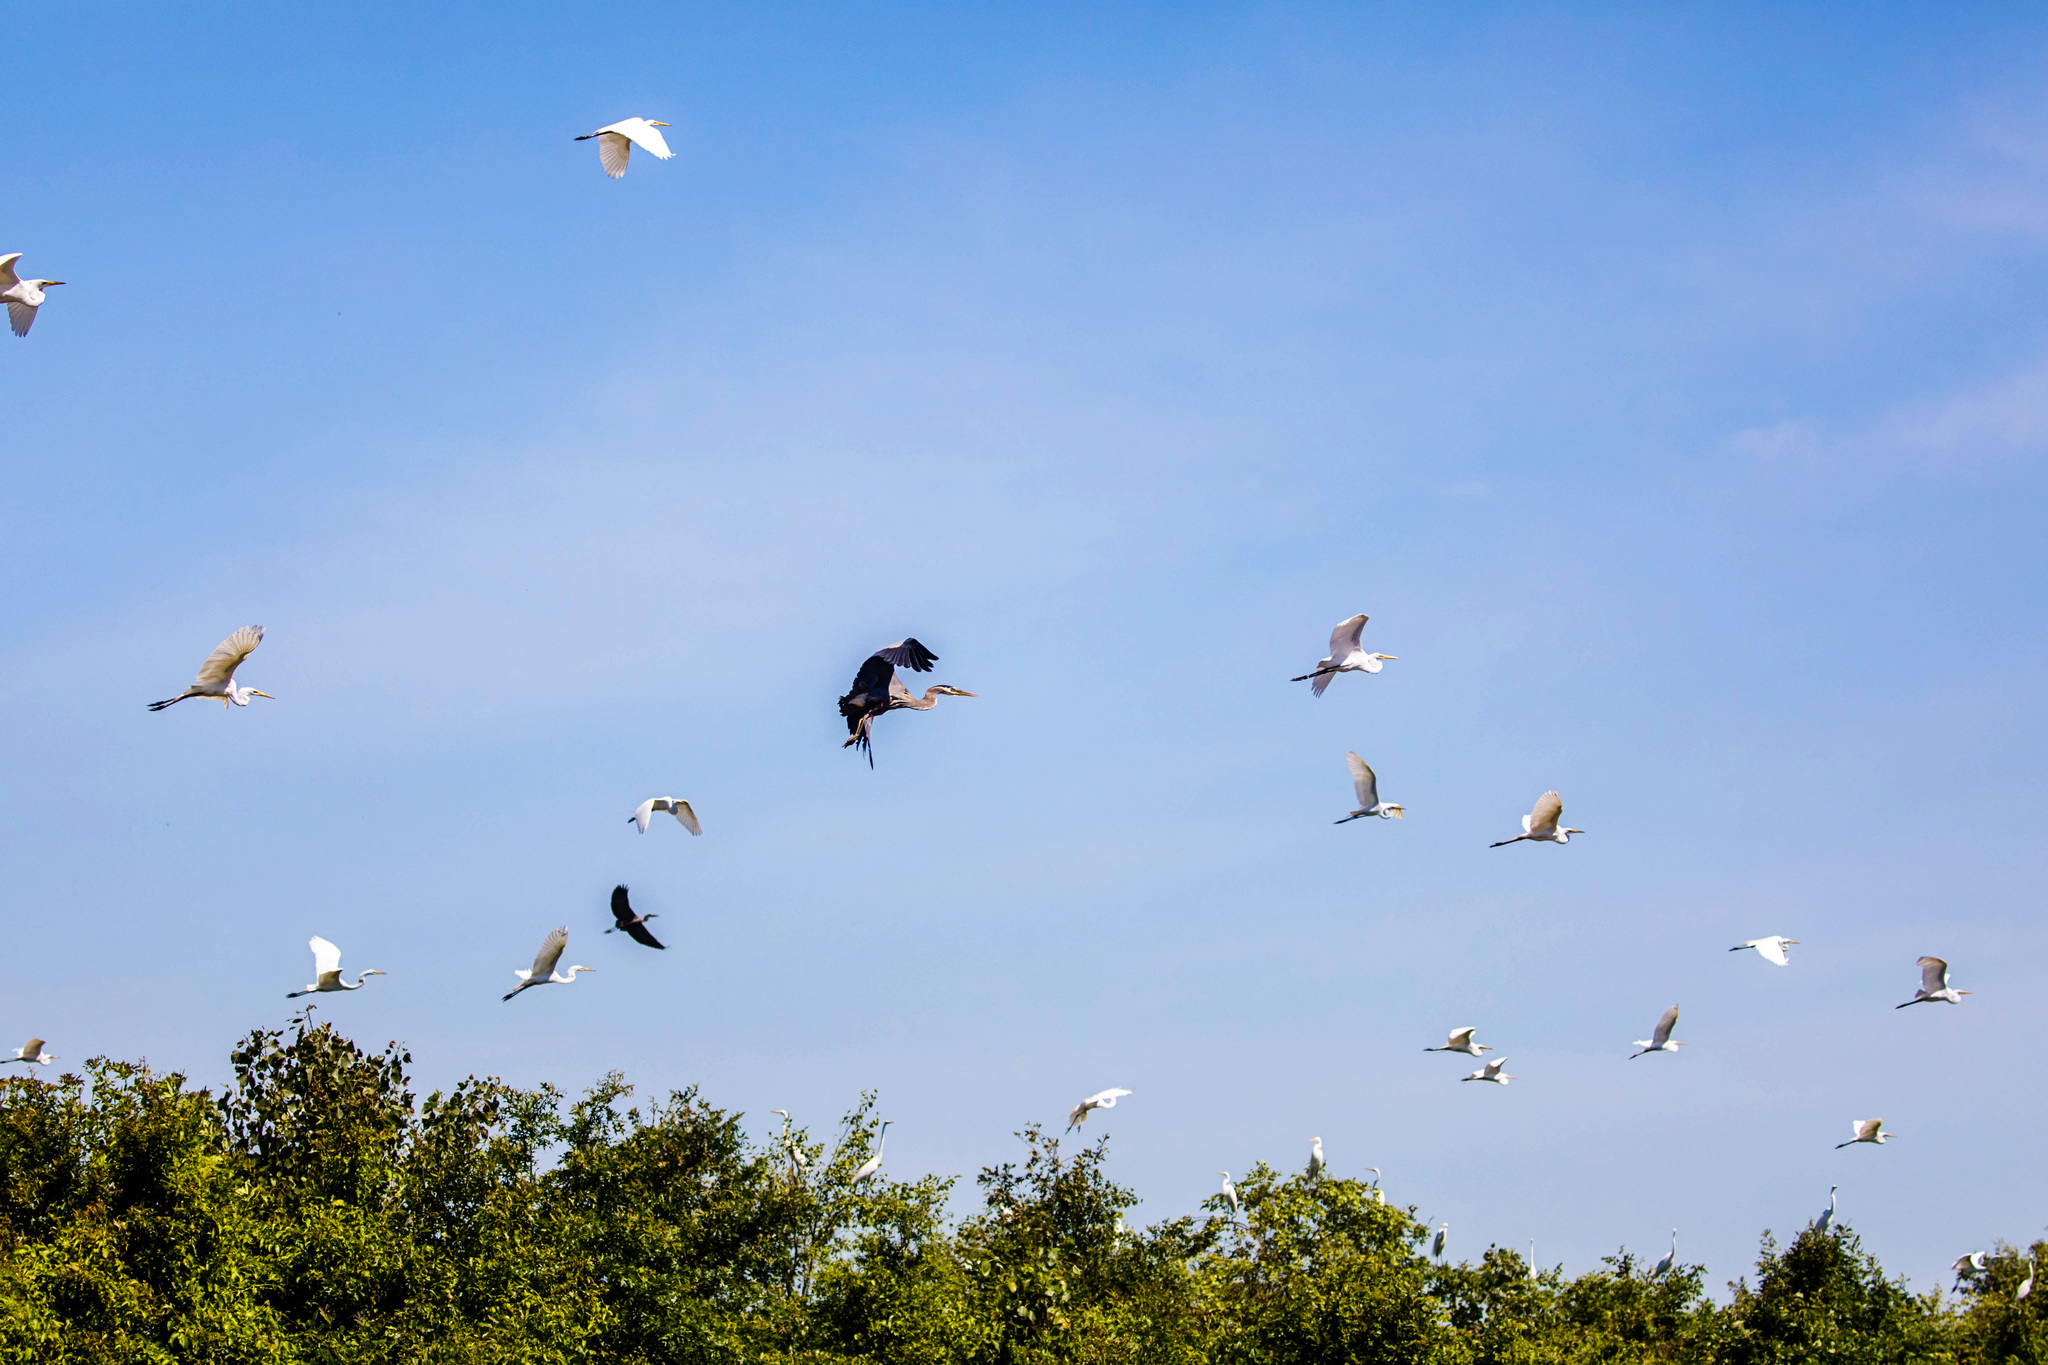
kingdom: Animalia
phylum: Chordata
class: Aves
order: Pelecaniformes
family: Ardeidae
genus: Ardea
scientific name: Ardea herodias
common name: Great blue heron
